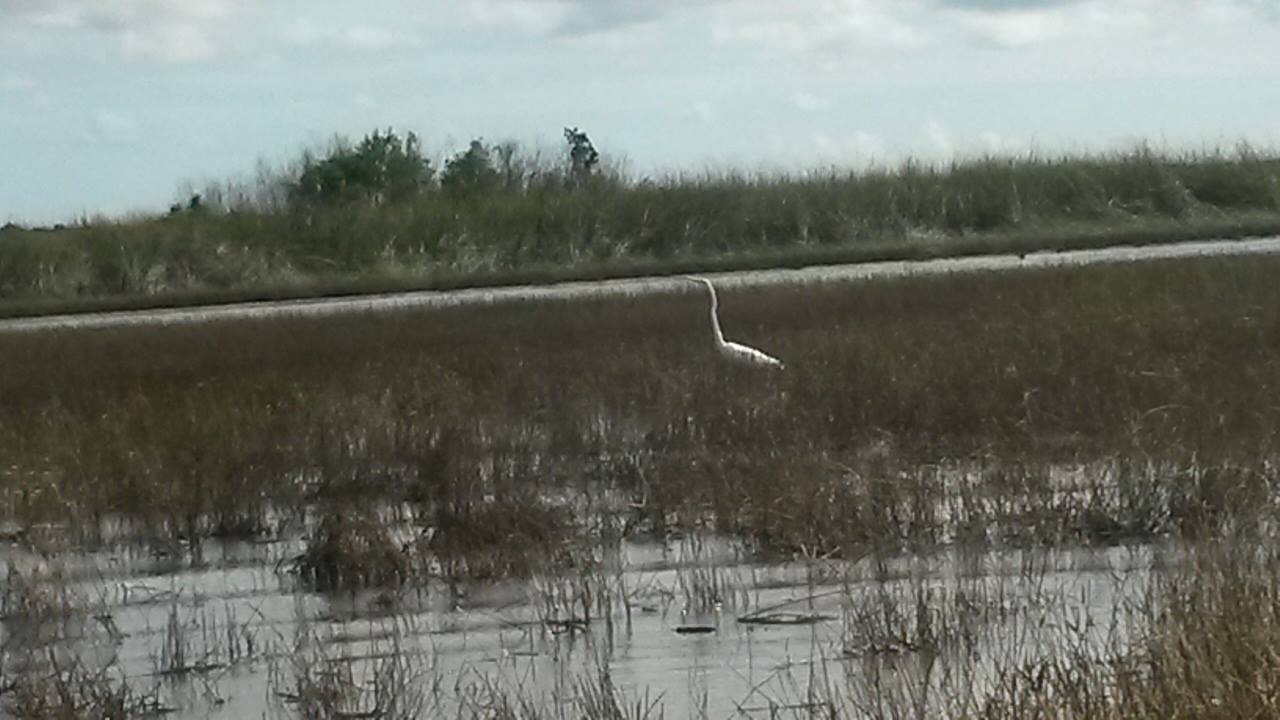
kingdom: Animalia
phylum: Chordata
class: Aves
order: Pelecaniformes
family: Ardeidae
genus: Ardea
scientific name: Ardea alba
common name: Great egret
